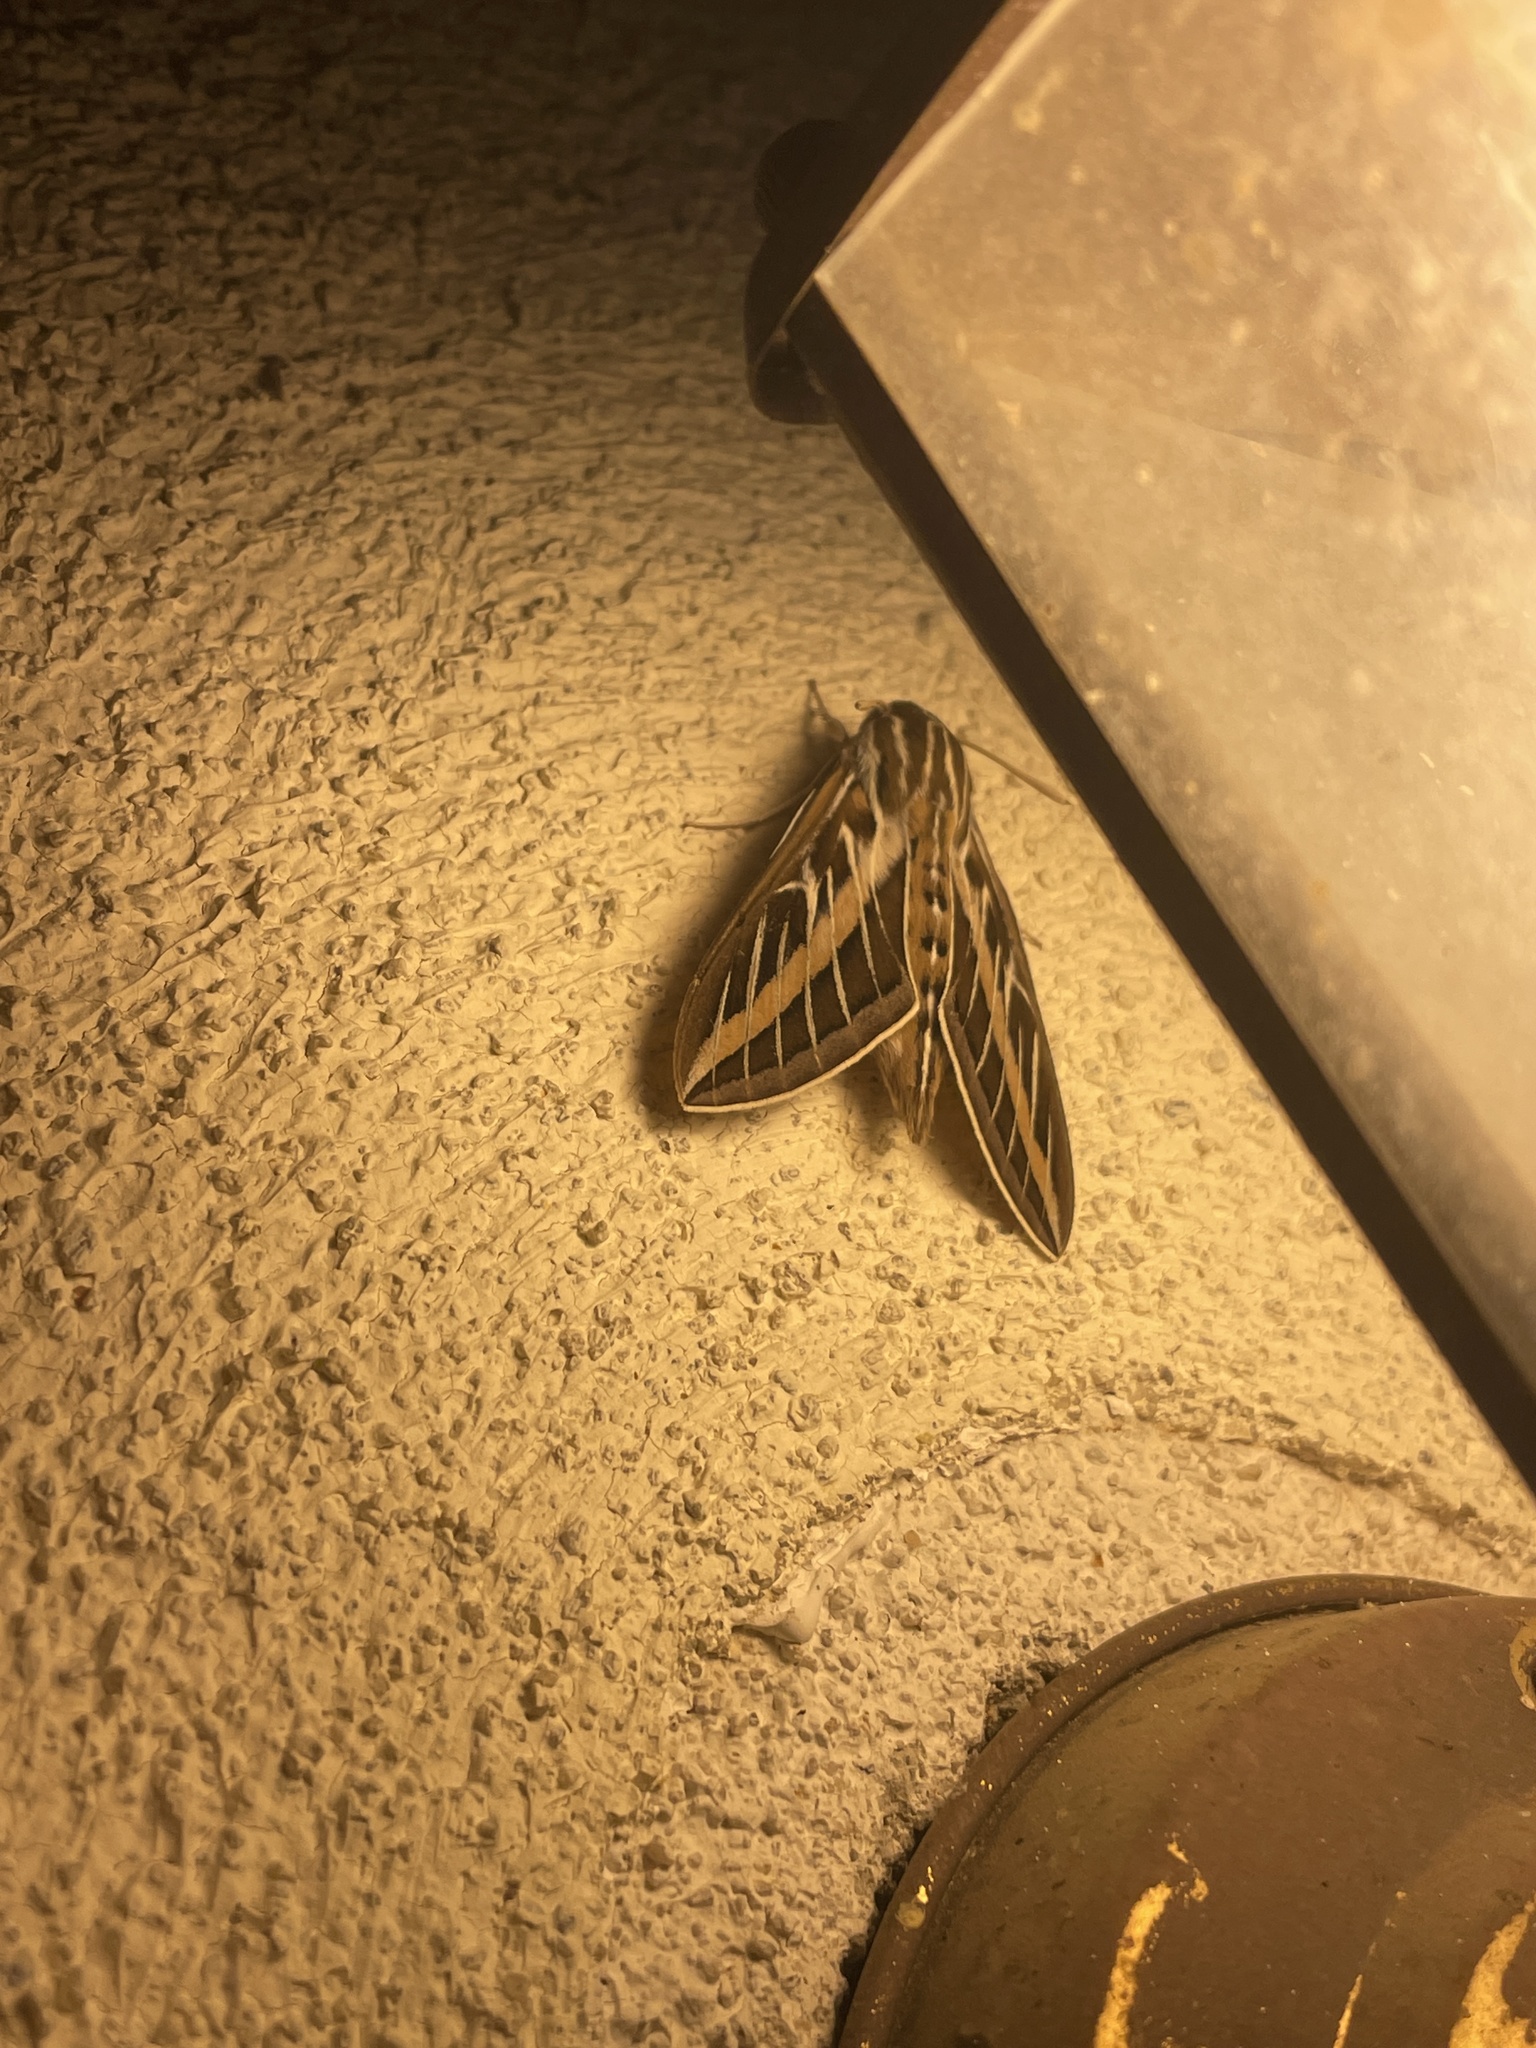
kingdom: Animalia
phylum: Arthropoda
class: Insecta
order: Lepidoptera
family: Sphingidae
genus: Hyles
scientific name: Hyles lineata
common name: White-lined sphinx
